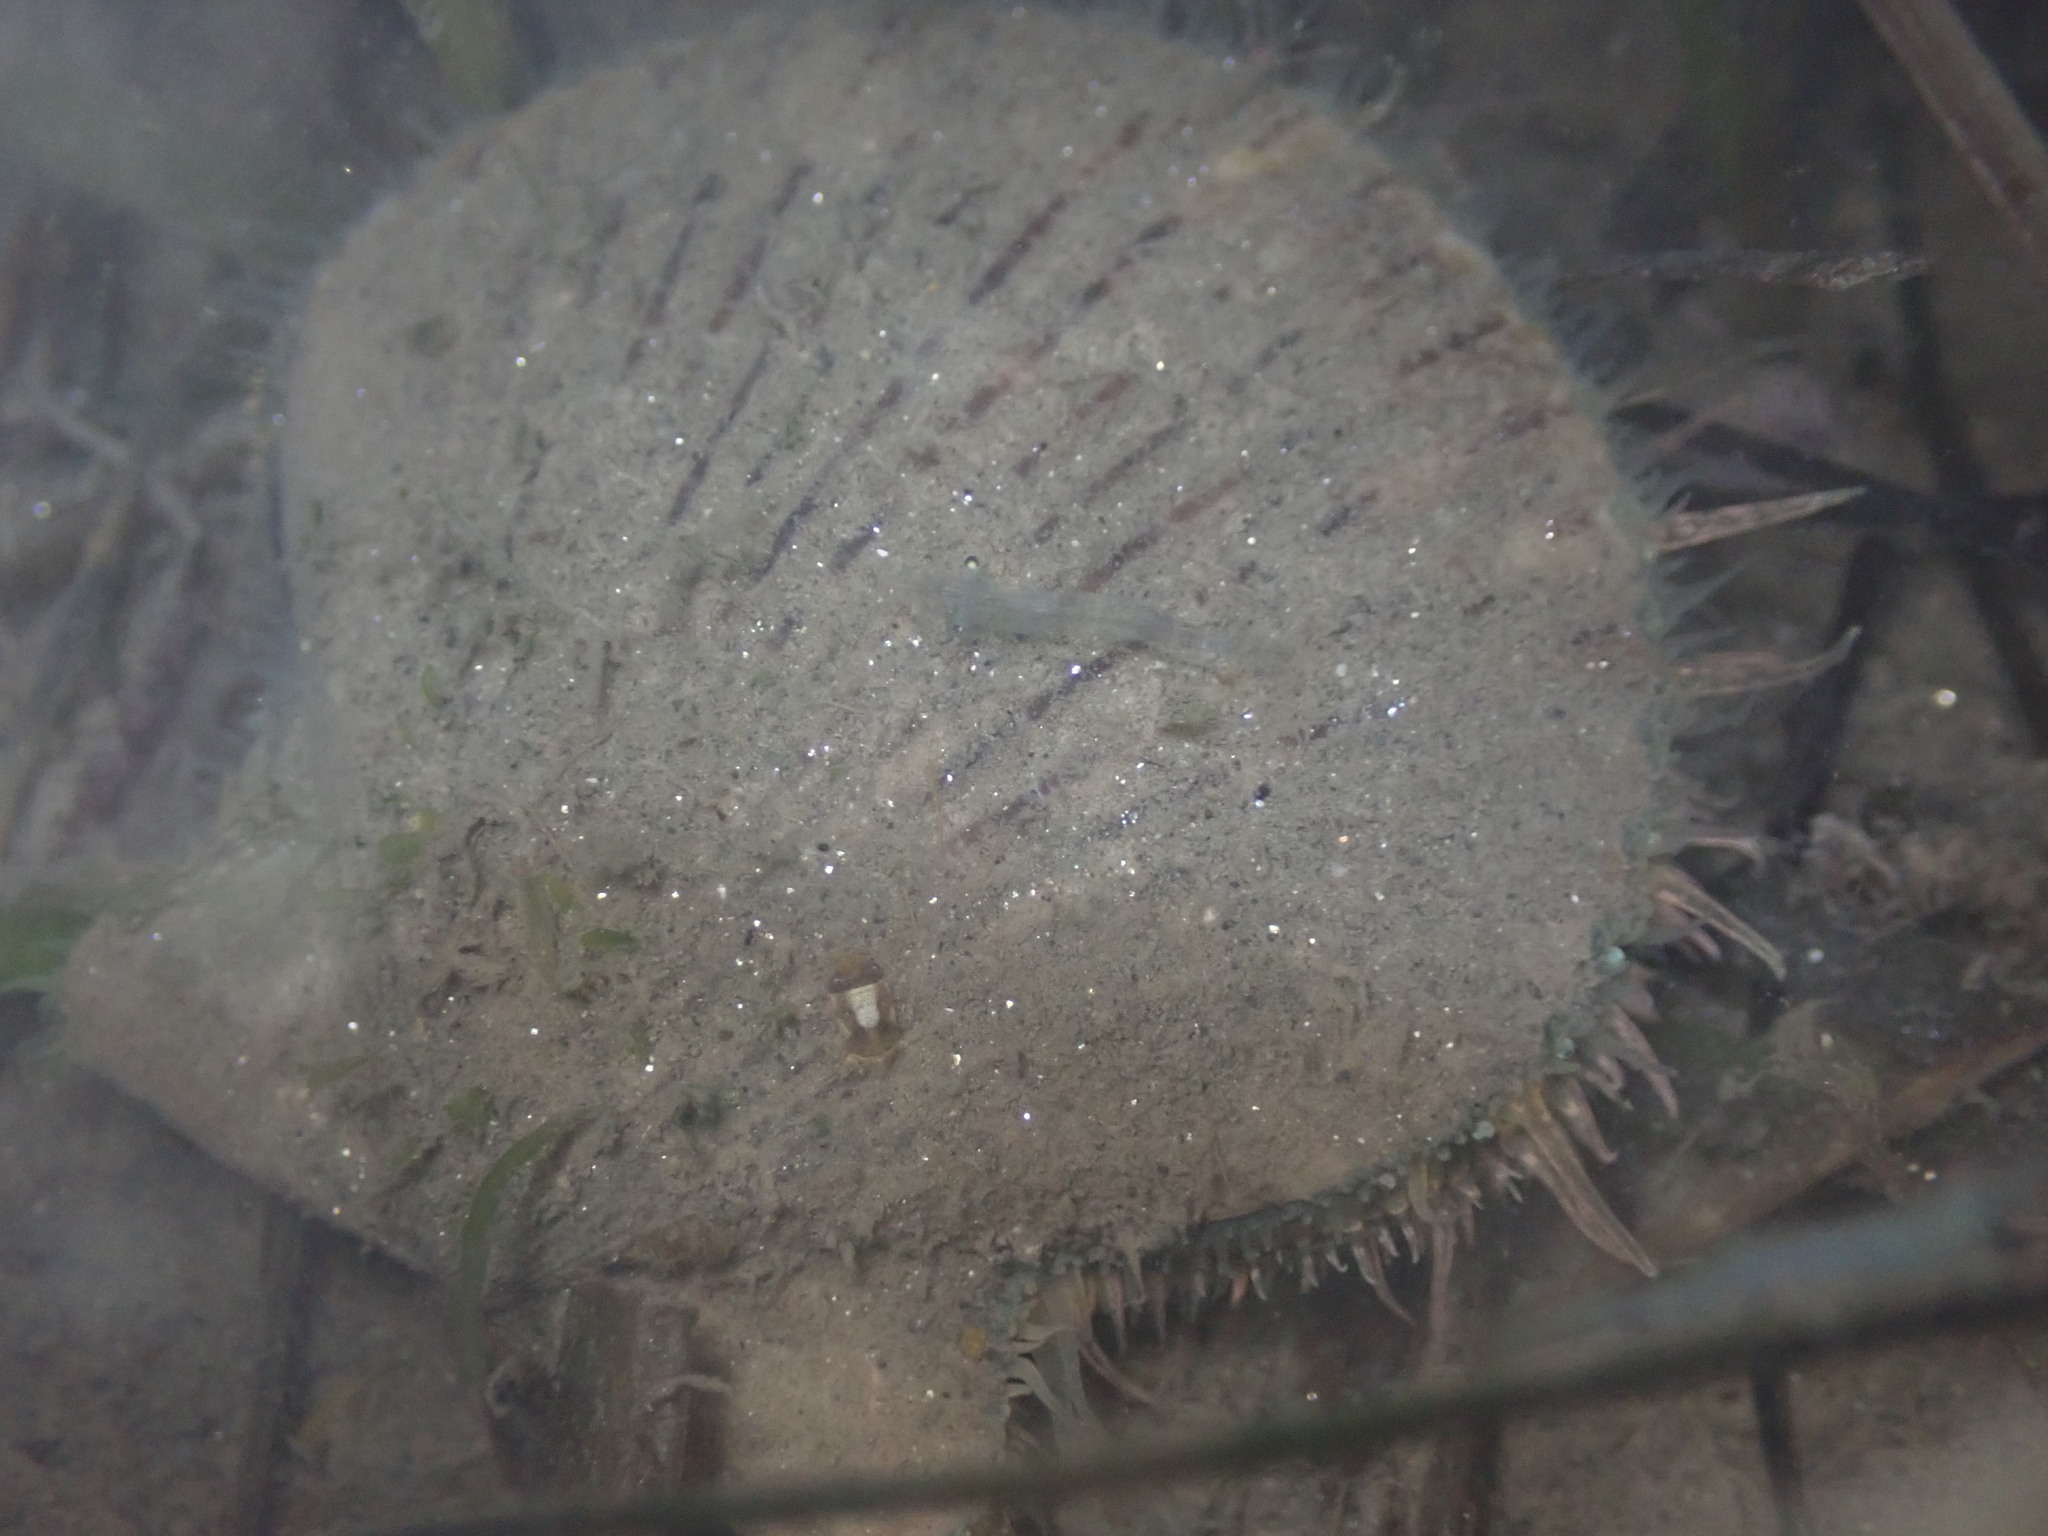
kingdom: Animalia
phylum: Mollusca
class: Bivalvia
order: Pectinida
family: Pectinidae
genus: Argopecten
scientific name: Argopecten ventricosus
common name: Catarina scallop
